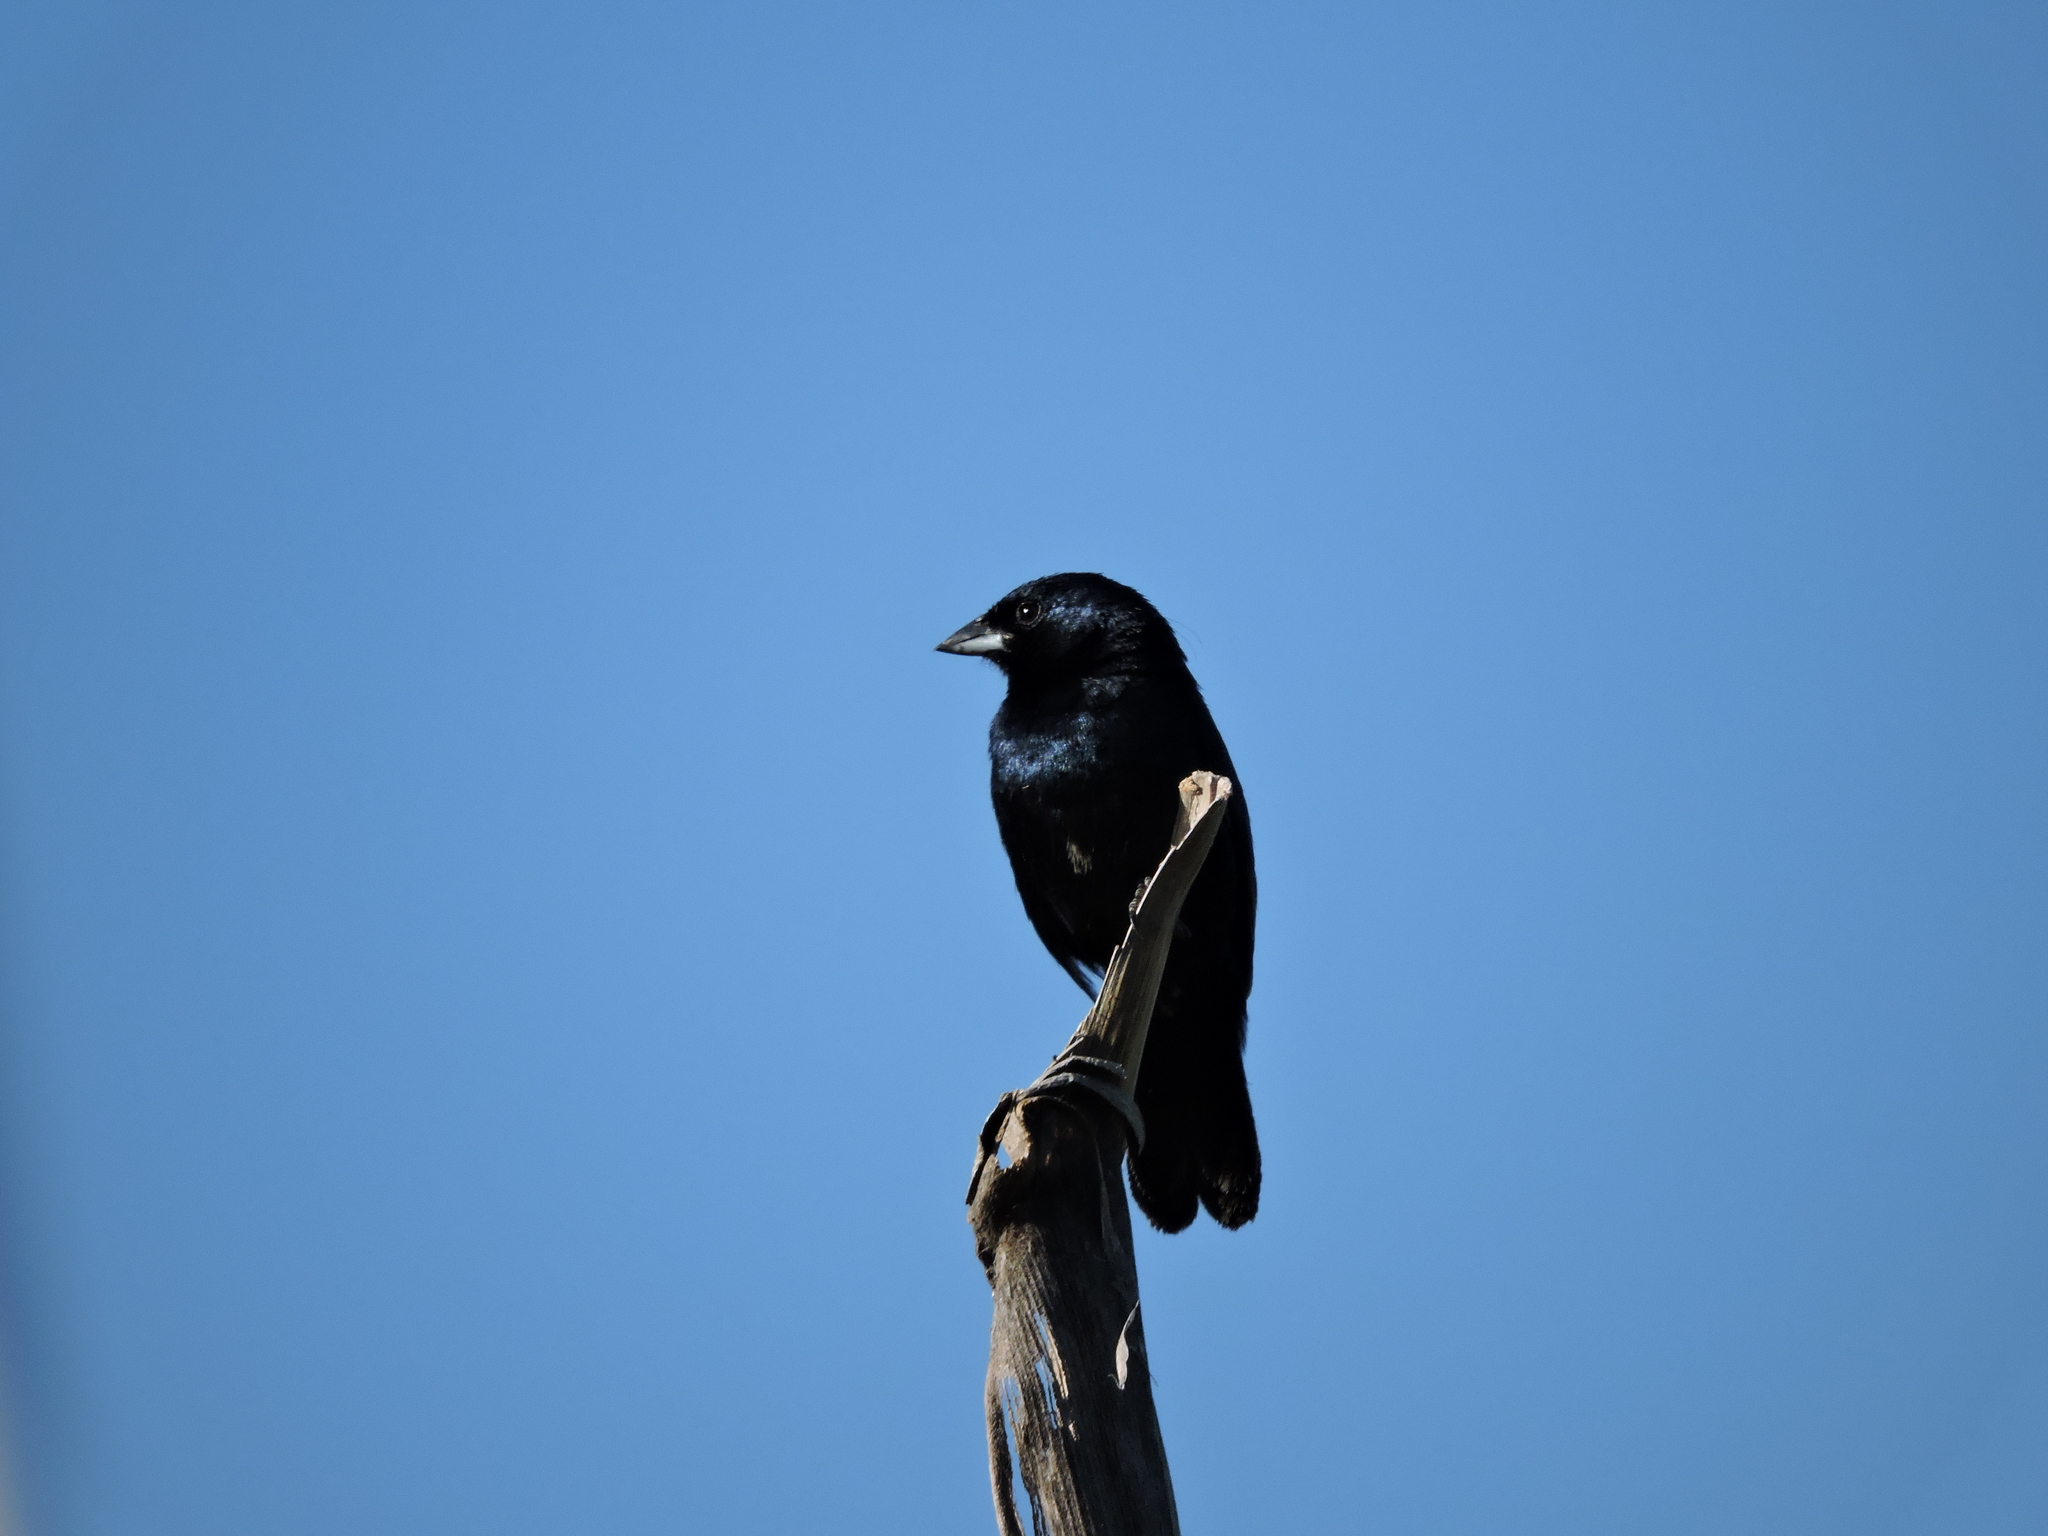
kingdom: Animalia
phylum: Chordata
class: Aves
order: Passeriformes
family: Thraupidae
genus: Volatinia
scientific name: Volatinia jacarina
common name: Blue-black grassquit
